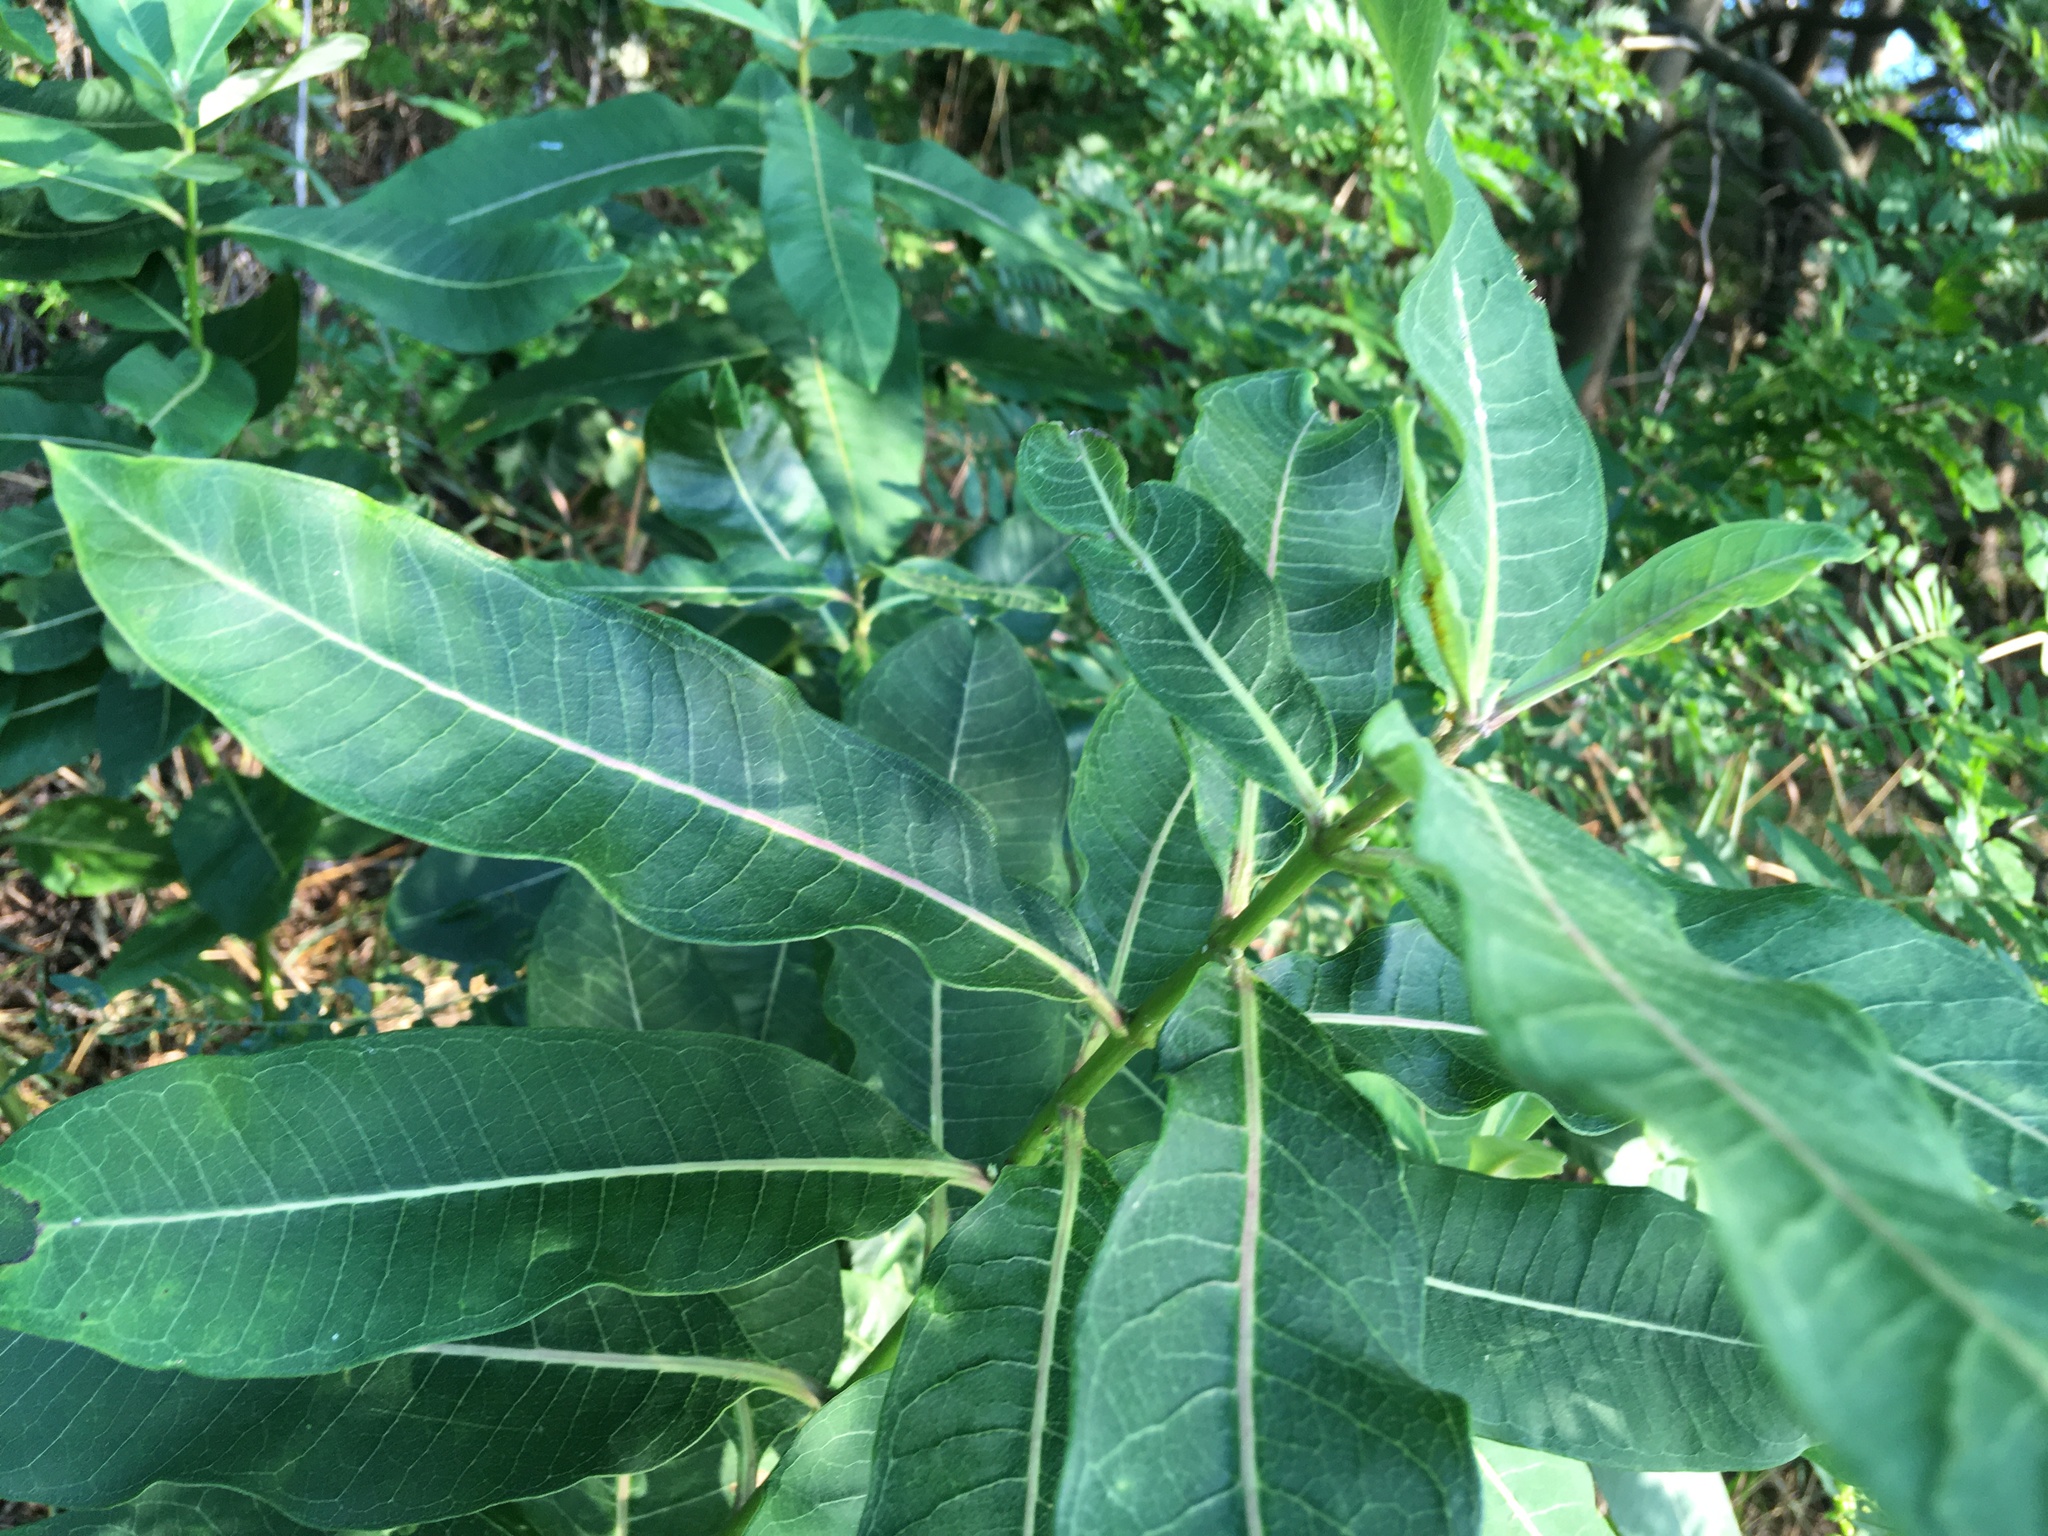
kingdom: Plantae
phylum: Tracheophyta
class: Magnoliopsida
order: Gentianales
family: Apocynaceae
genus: Asclepias
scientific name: Asclepias syriaca
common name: Common milkweed
